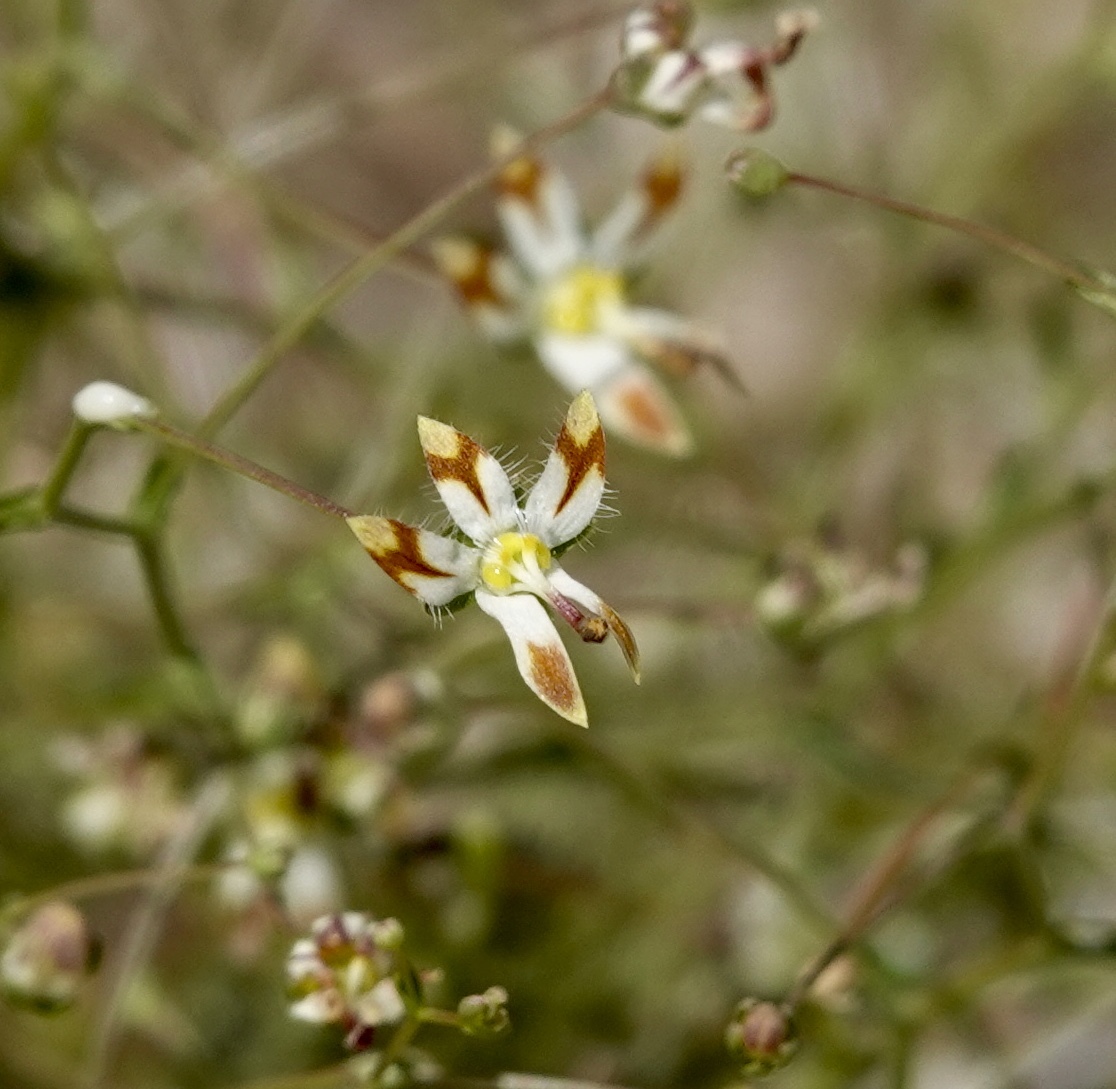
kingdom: Plantae
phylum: Tracheophyta
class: Magnoliopsida
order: Asterales
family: Campanulaceae
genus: Nemacladus
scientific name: Nemacladus rubescens
